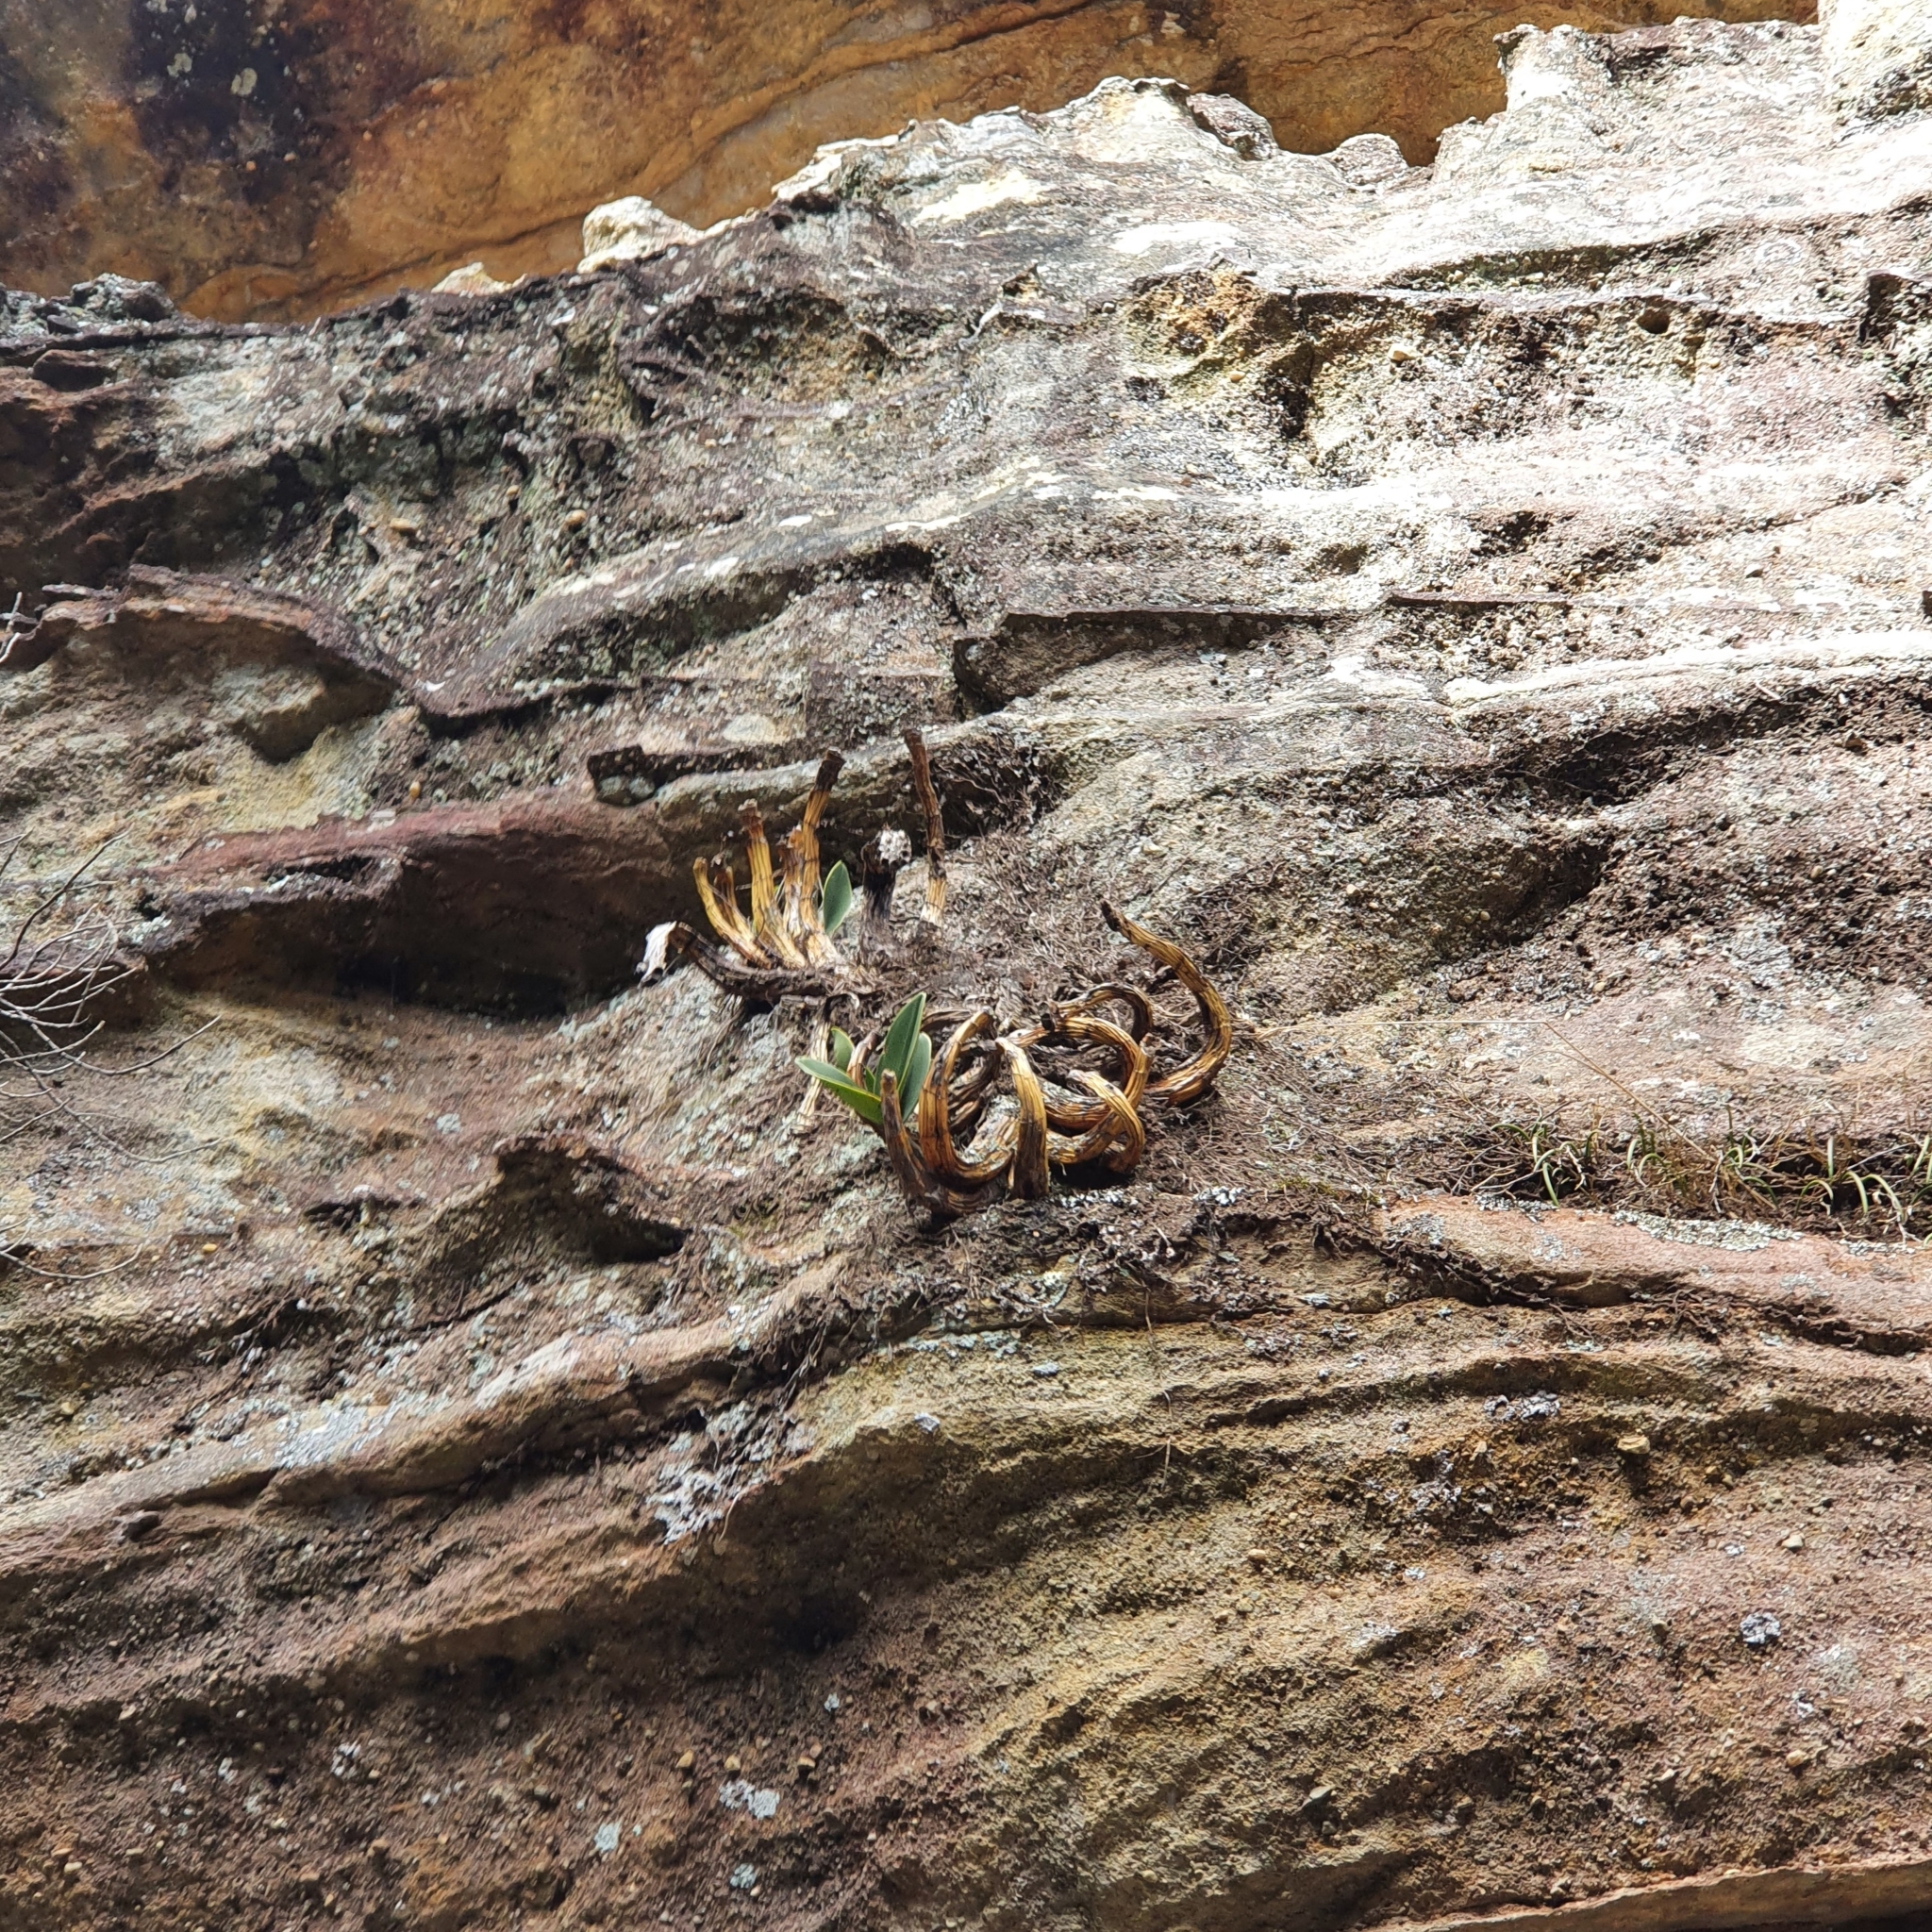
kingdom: Plantae
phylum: Tracheophyta
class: Liliopsida
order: Asparagales
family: Orchidaceae
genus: Dendrobium
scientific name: Dendrobium speciosum
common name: Rock-lily
